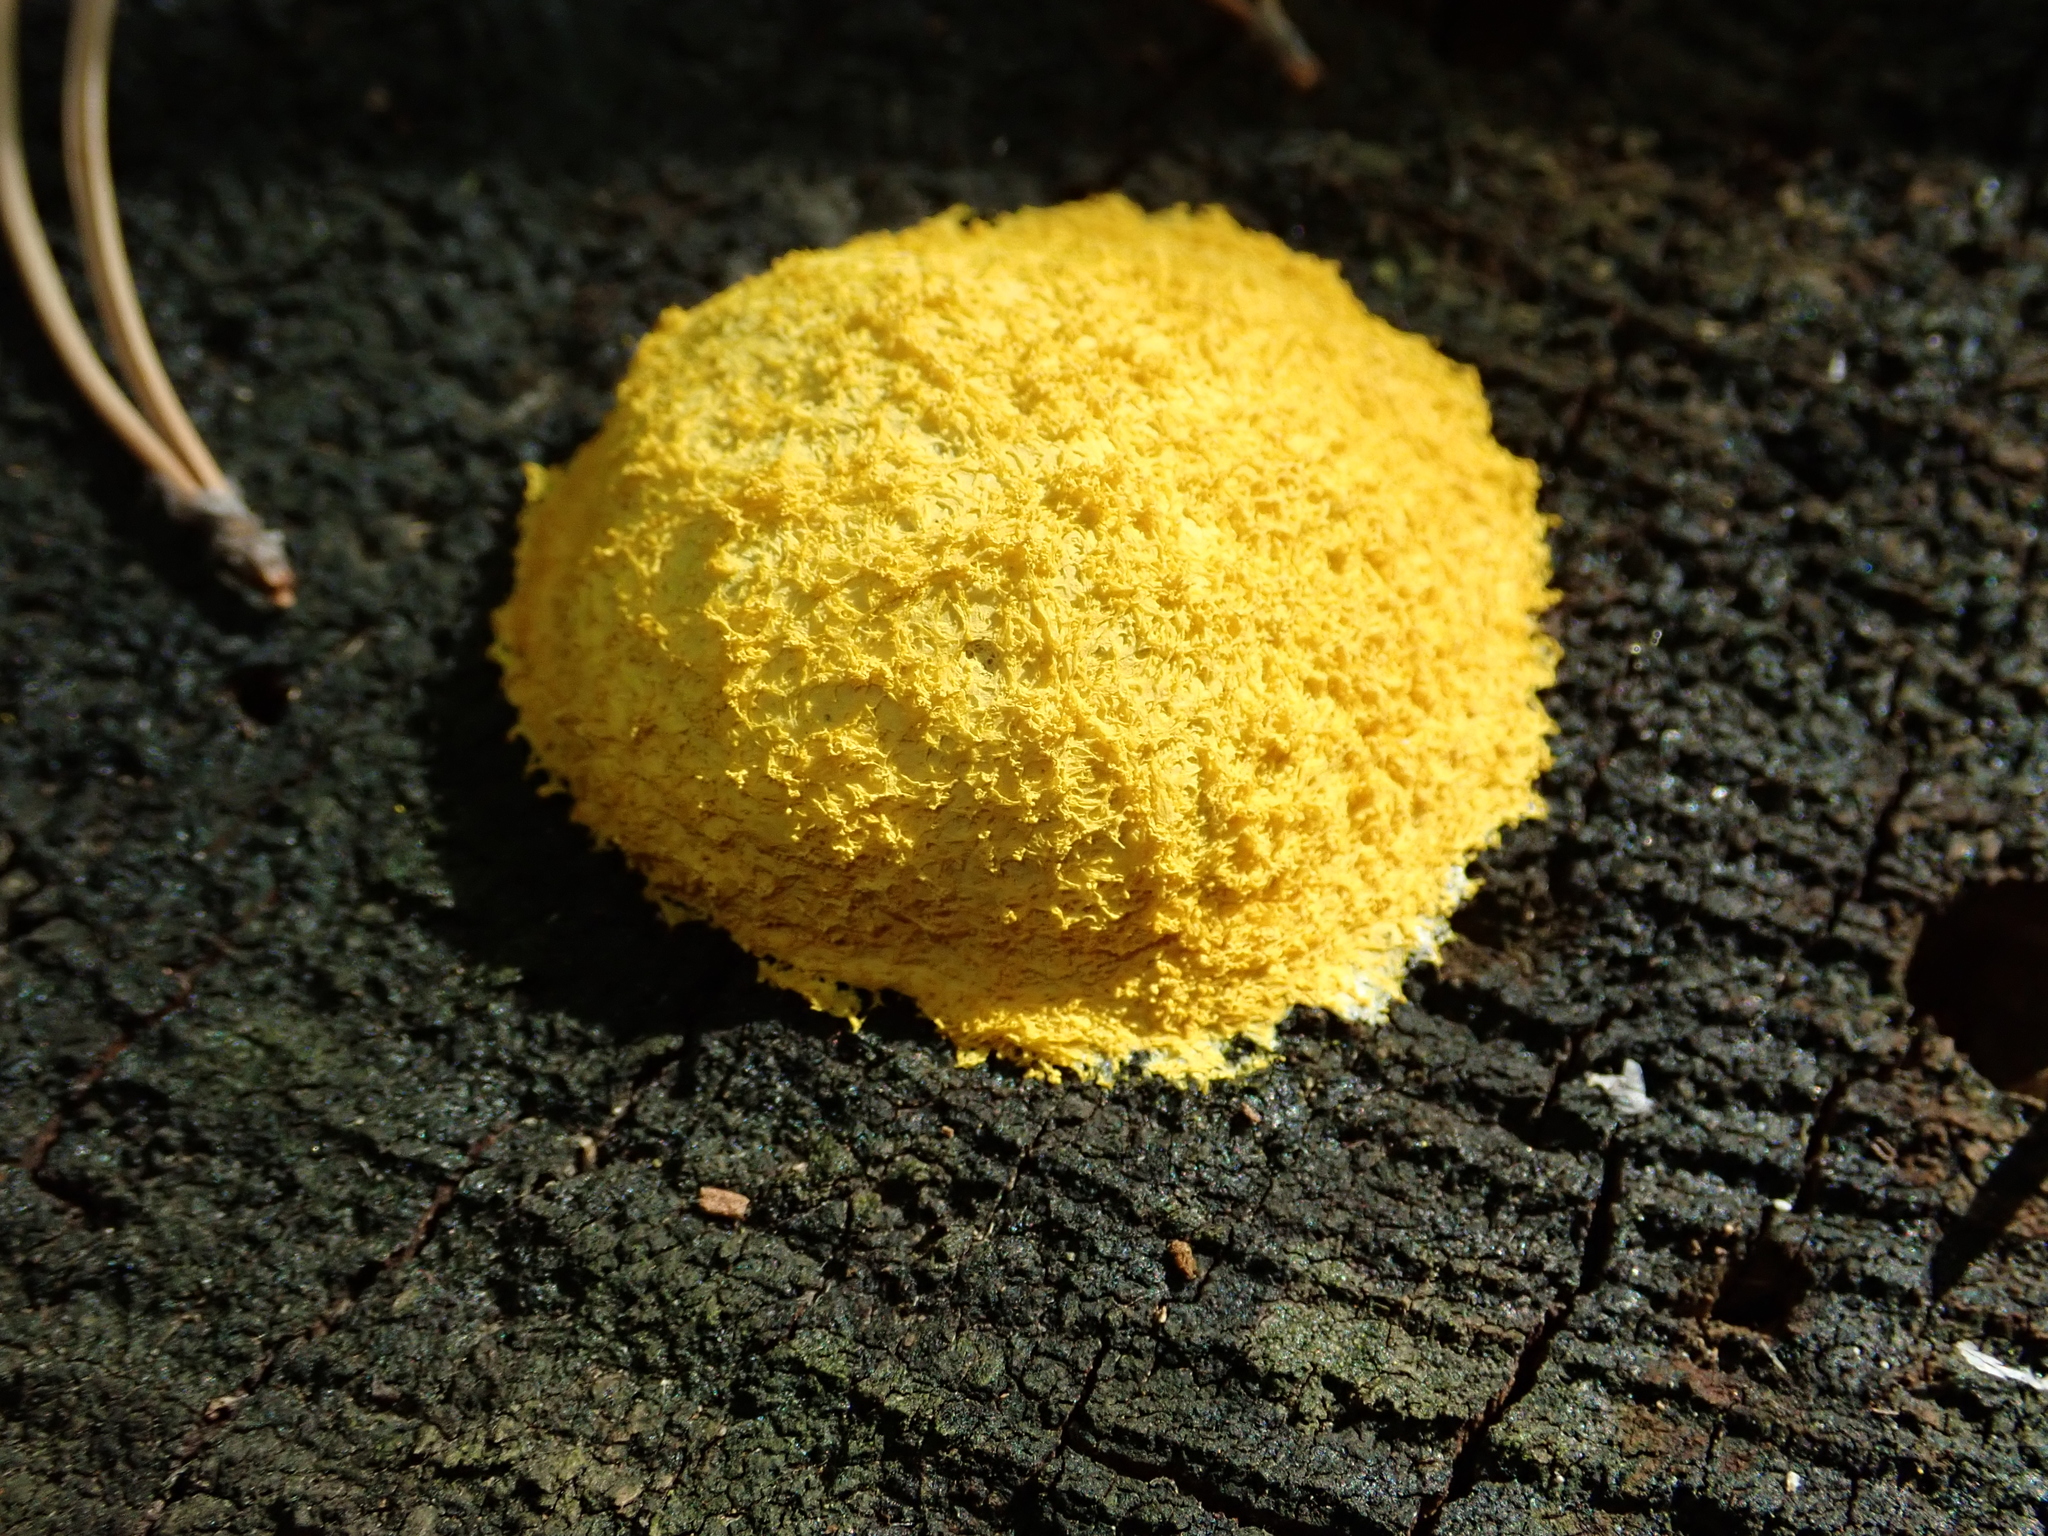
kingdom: Protozoa
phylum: Mycetozoa
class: Myxomycetes
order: Physarales
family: Physaraceae
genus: Fuligo
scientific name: Fuligo septica
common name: Dog vomit slime mold
